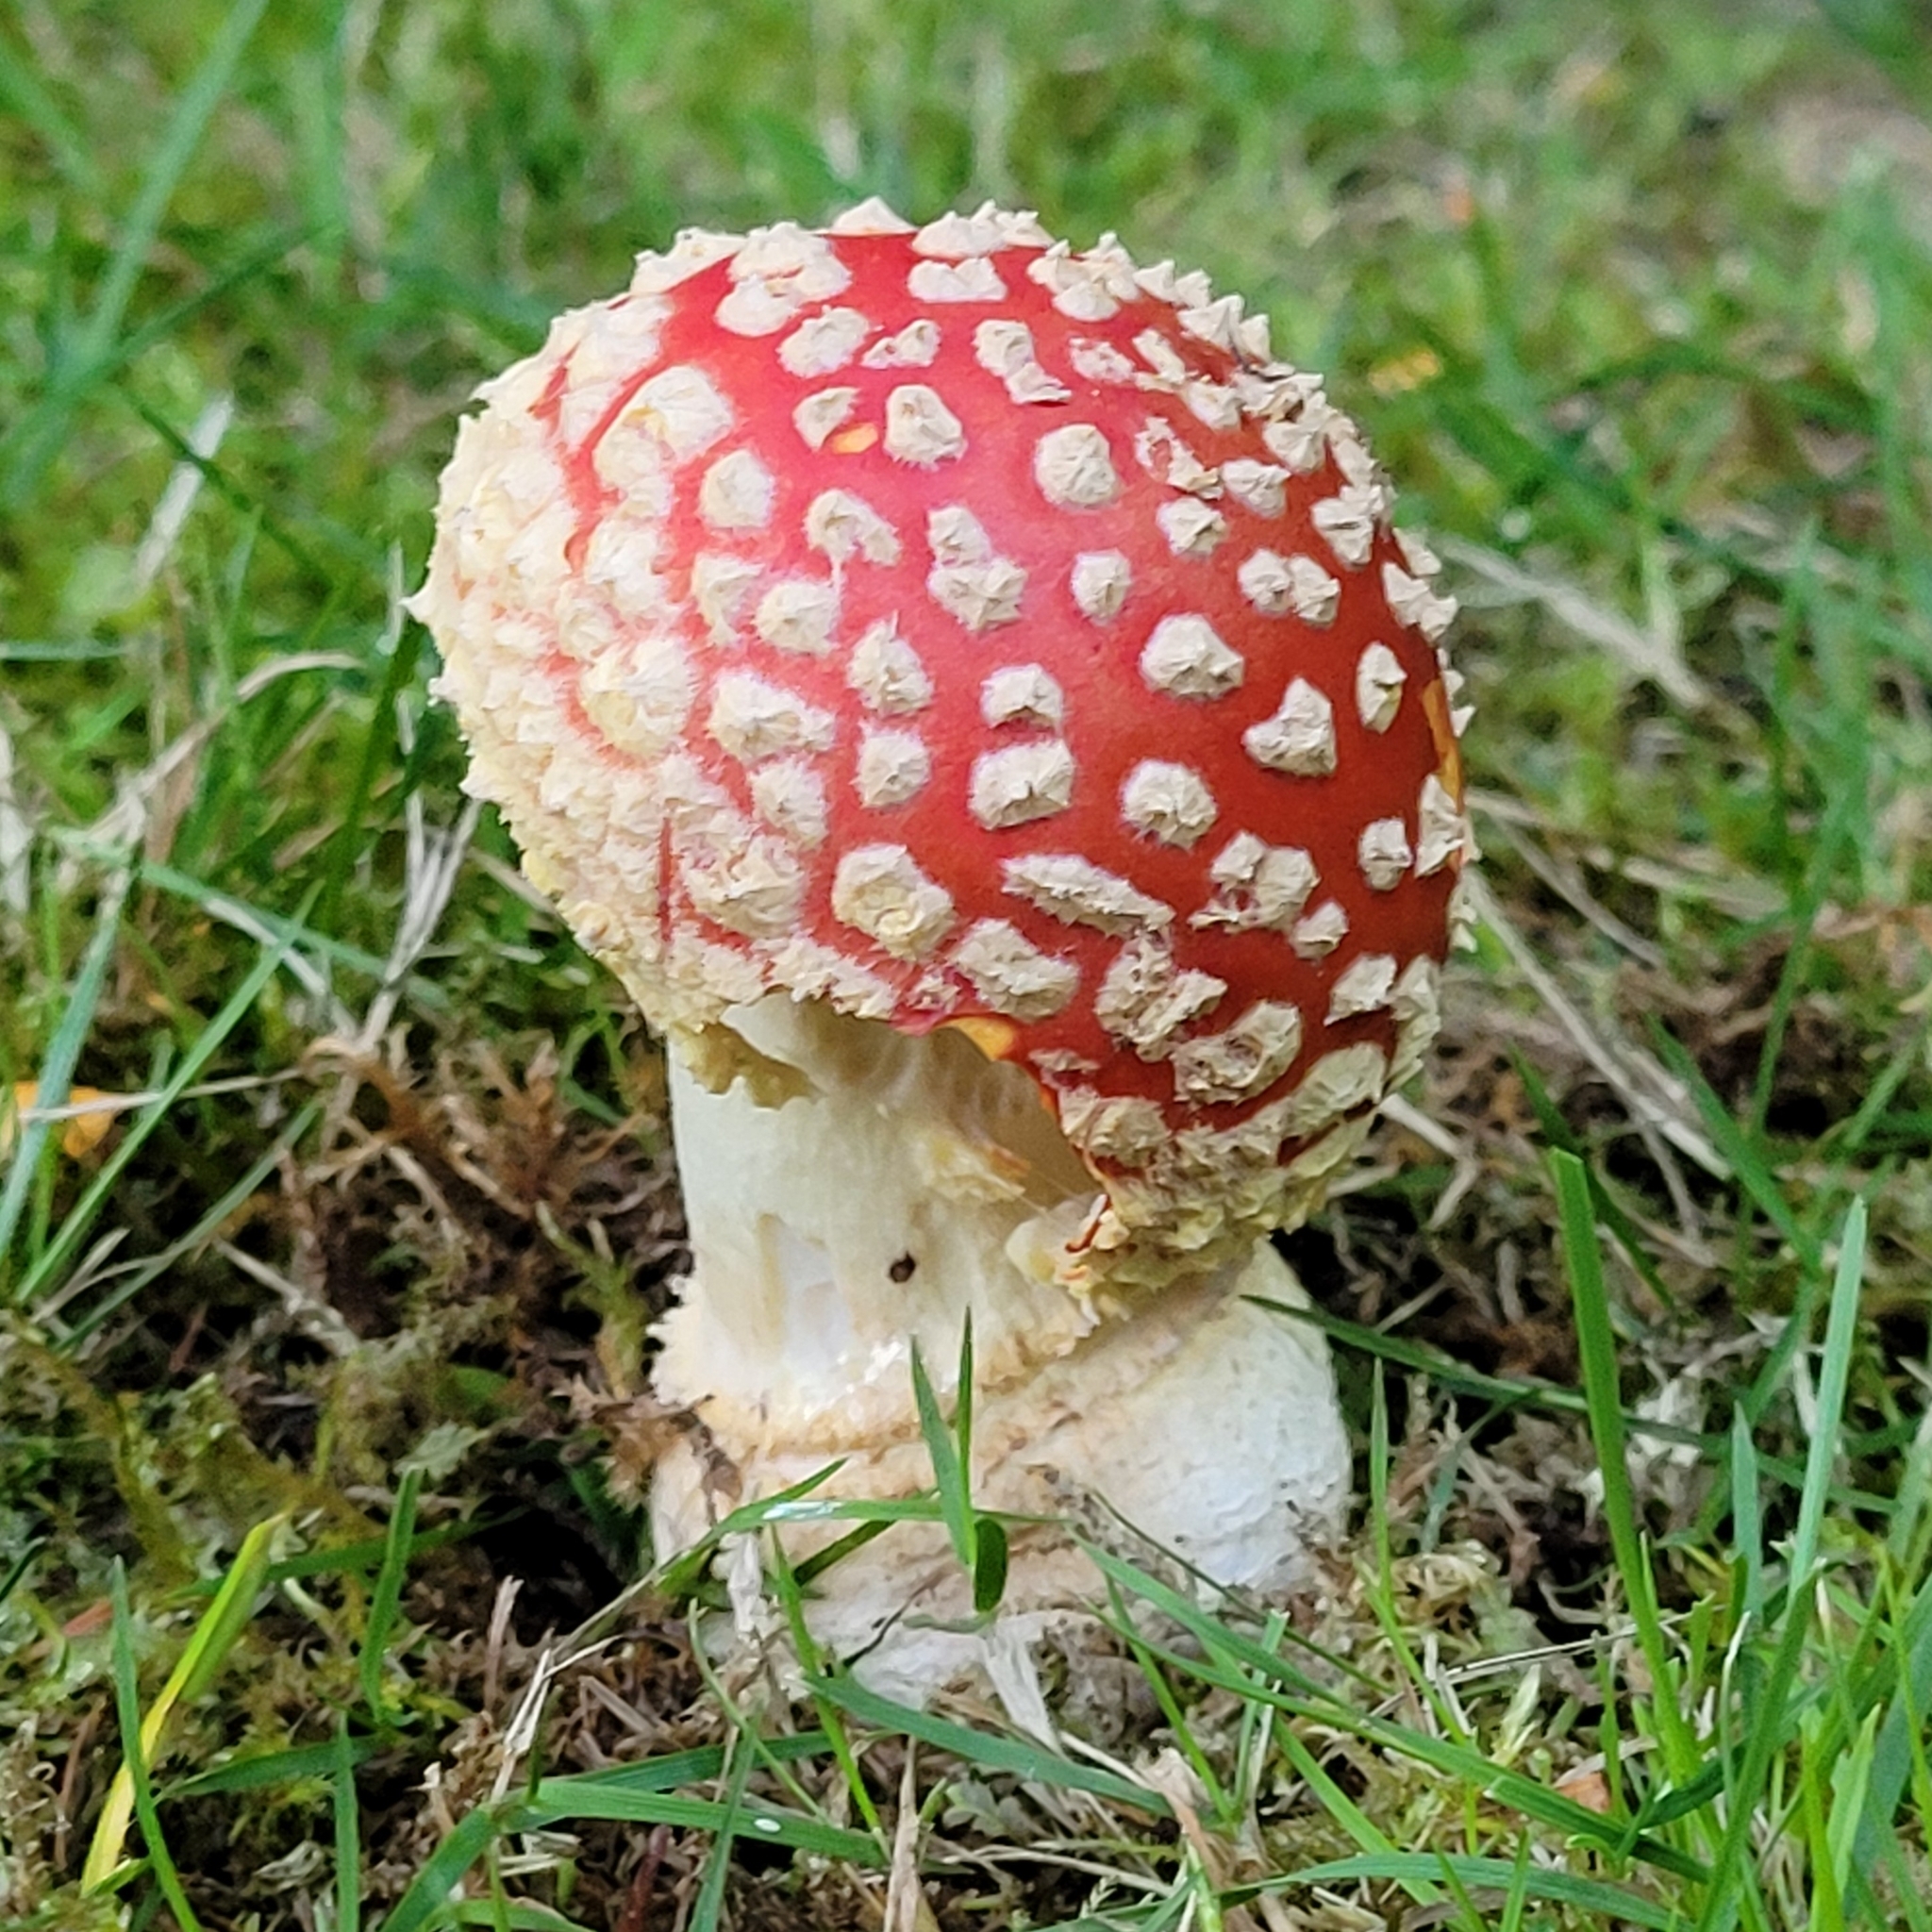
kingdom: Fungi
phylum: Basidiomycota
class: Agaricomycetes
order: Agaricales
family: Amanitaceae
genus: Amanita
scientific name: Amanita muscaria
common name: Fly agaric
